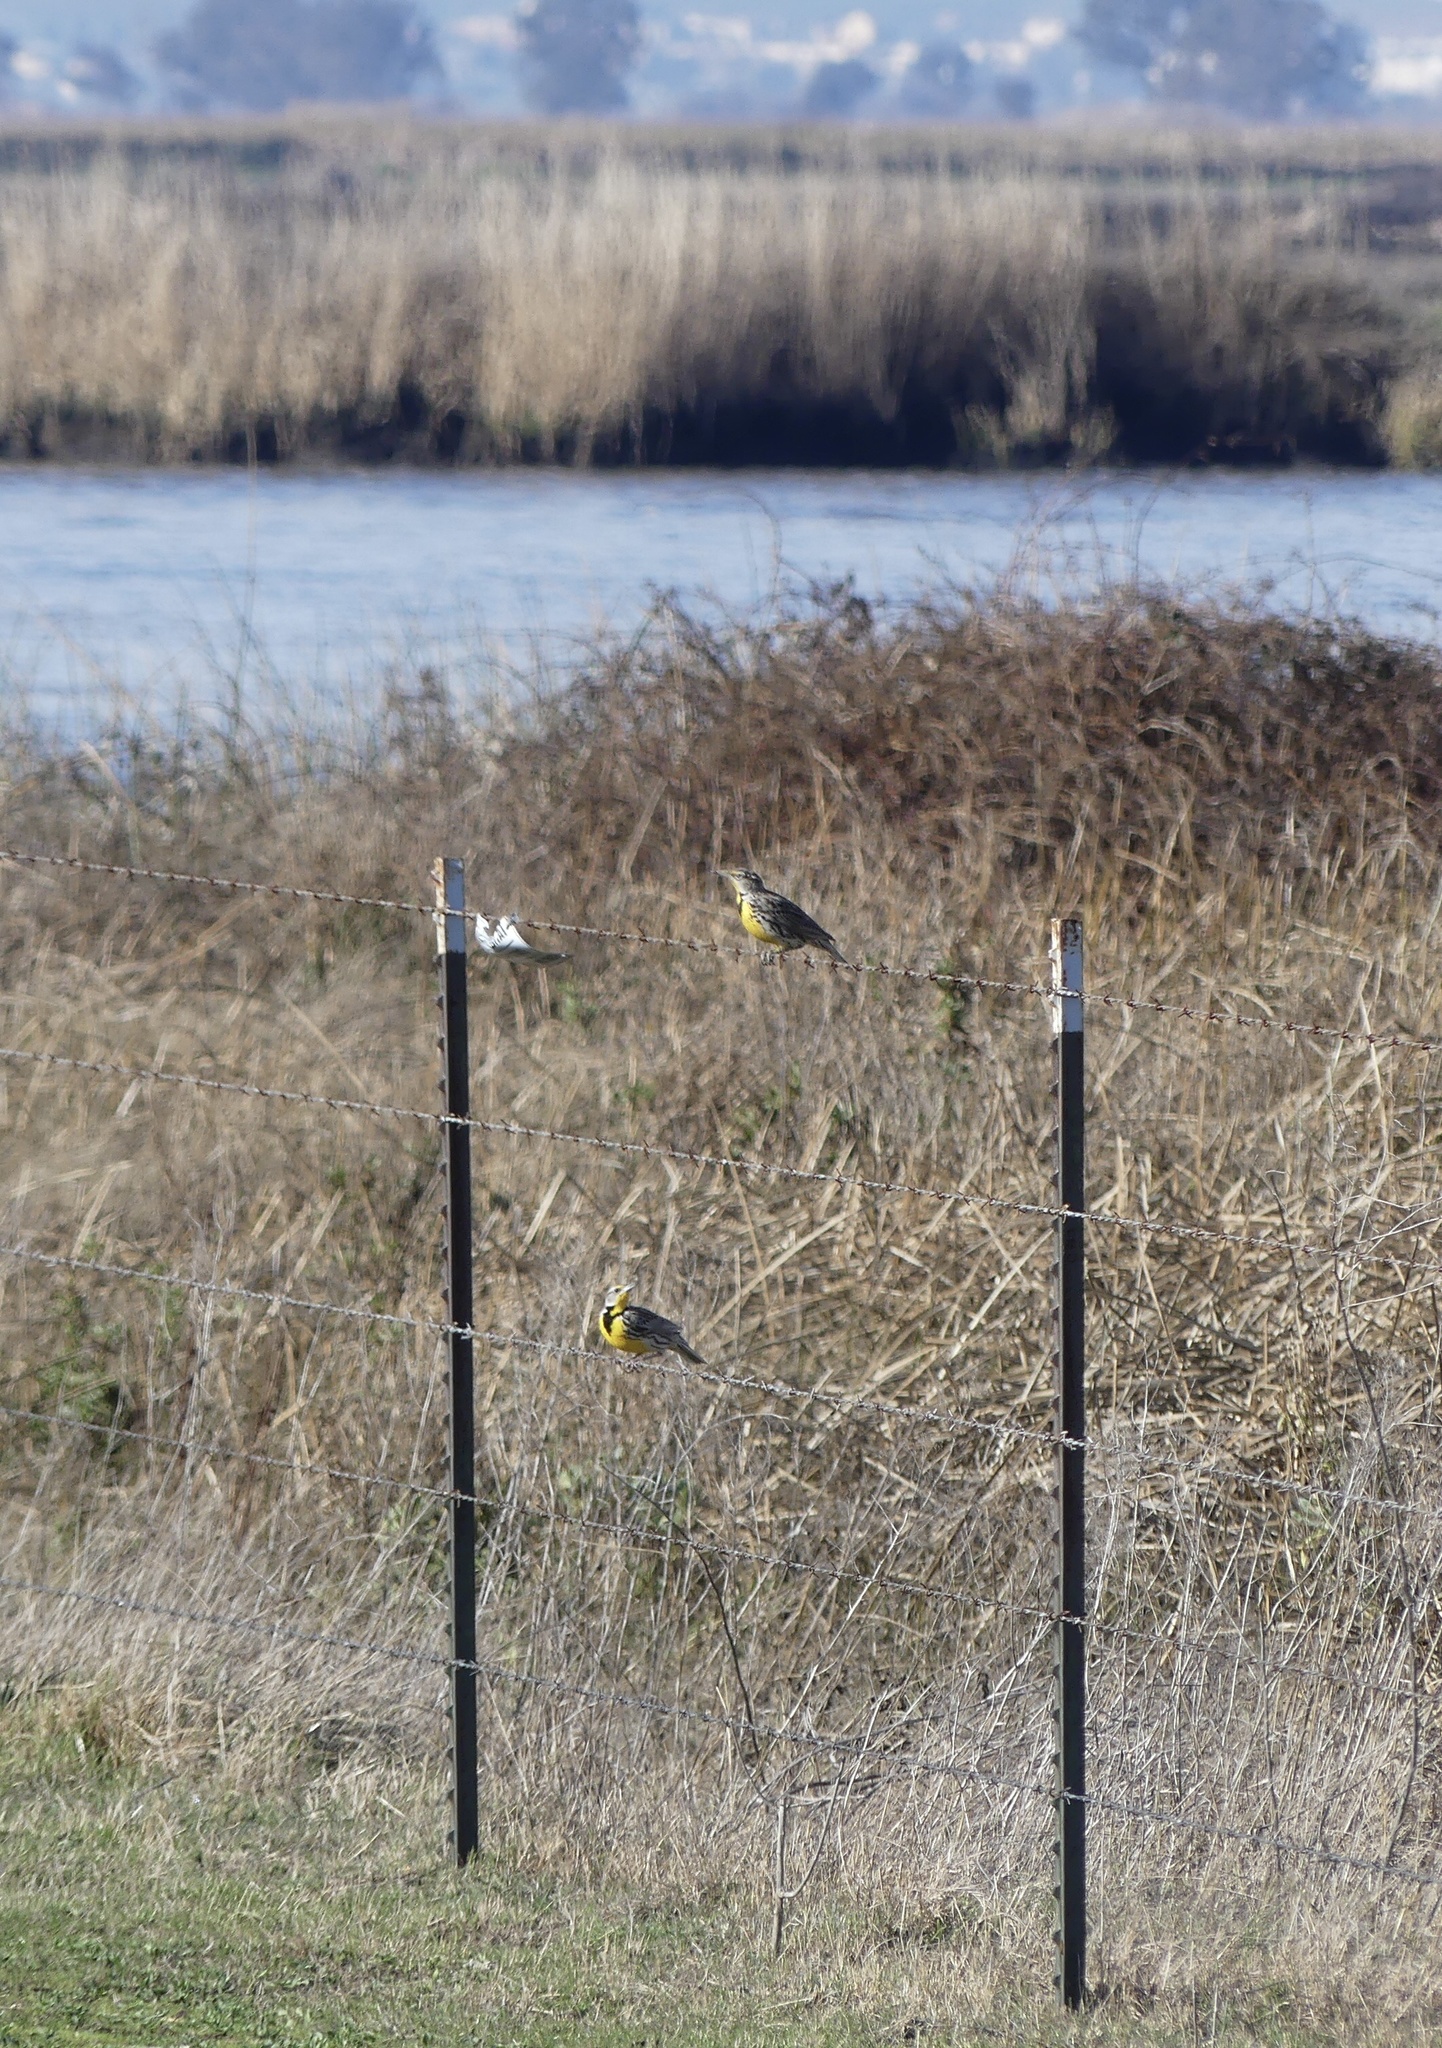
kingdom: Animalia
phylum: Chordata
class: Aves
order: Passeriformes
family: Icteridae
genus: Sturnella
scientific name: Sturnella neglecta
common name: Western meadowlark
